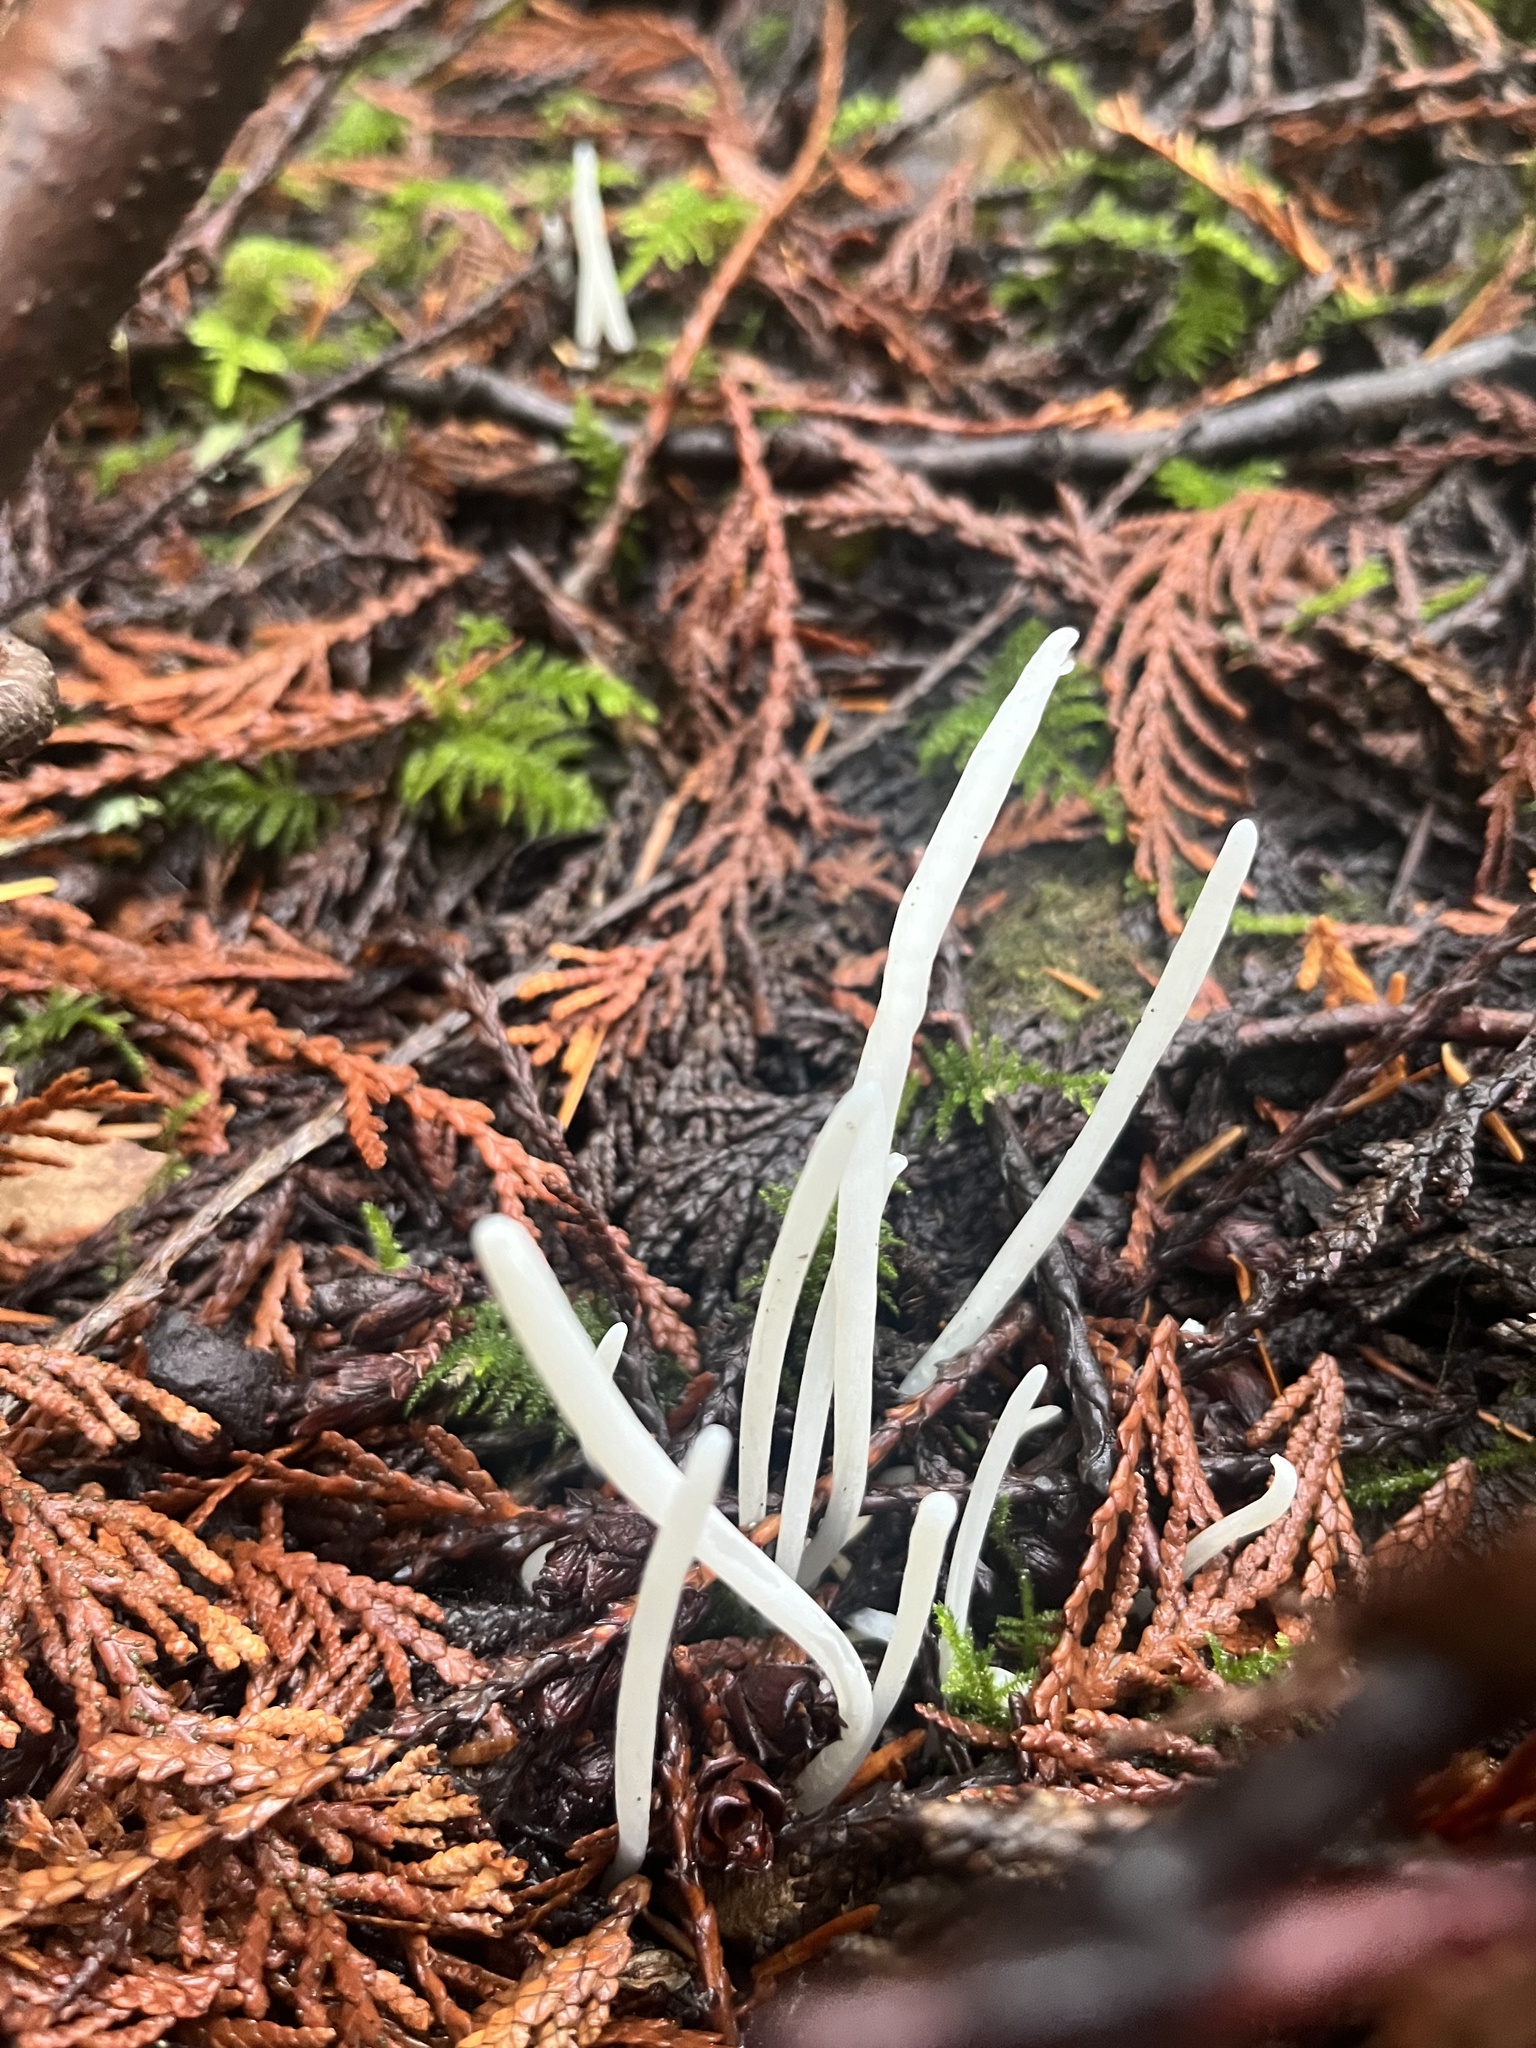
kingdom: Fungi
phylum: Basidiomycota
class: Agaricomycetes
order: Agaricales
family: Clavariaceae
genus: Clavaria
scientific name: Clavaria fragilis
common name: White spindles
